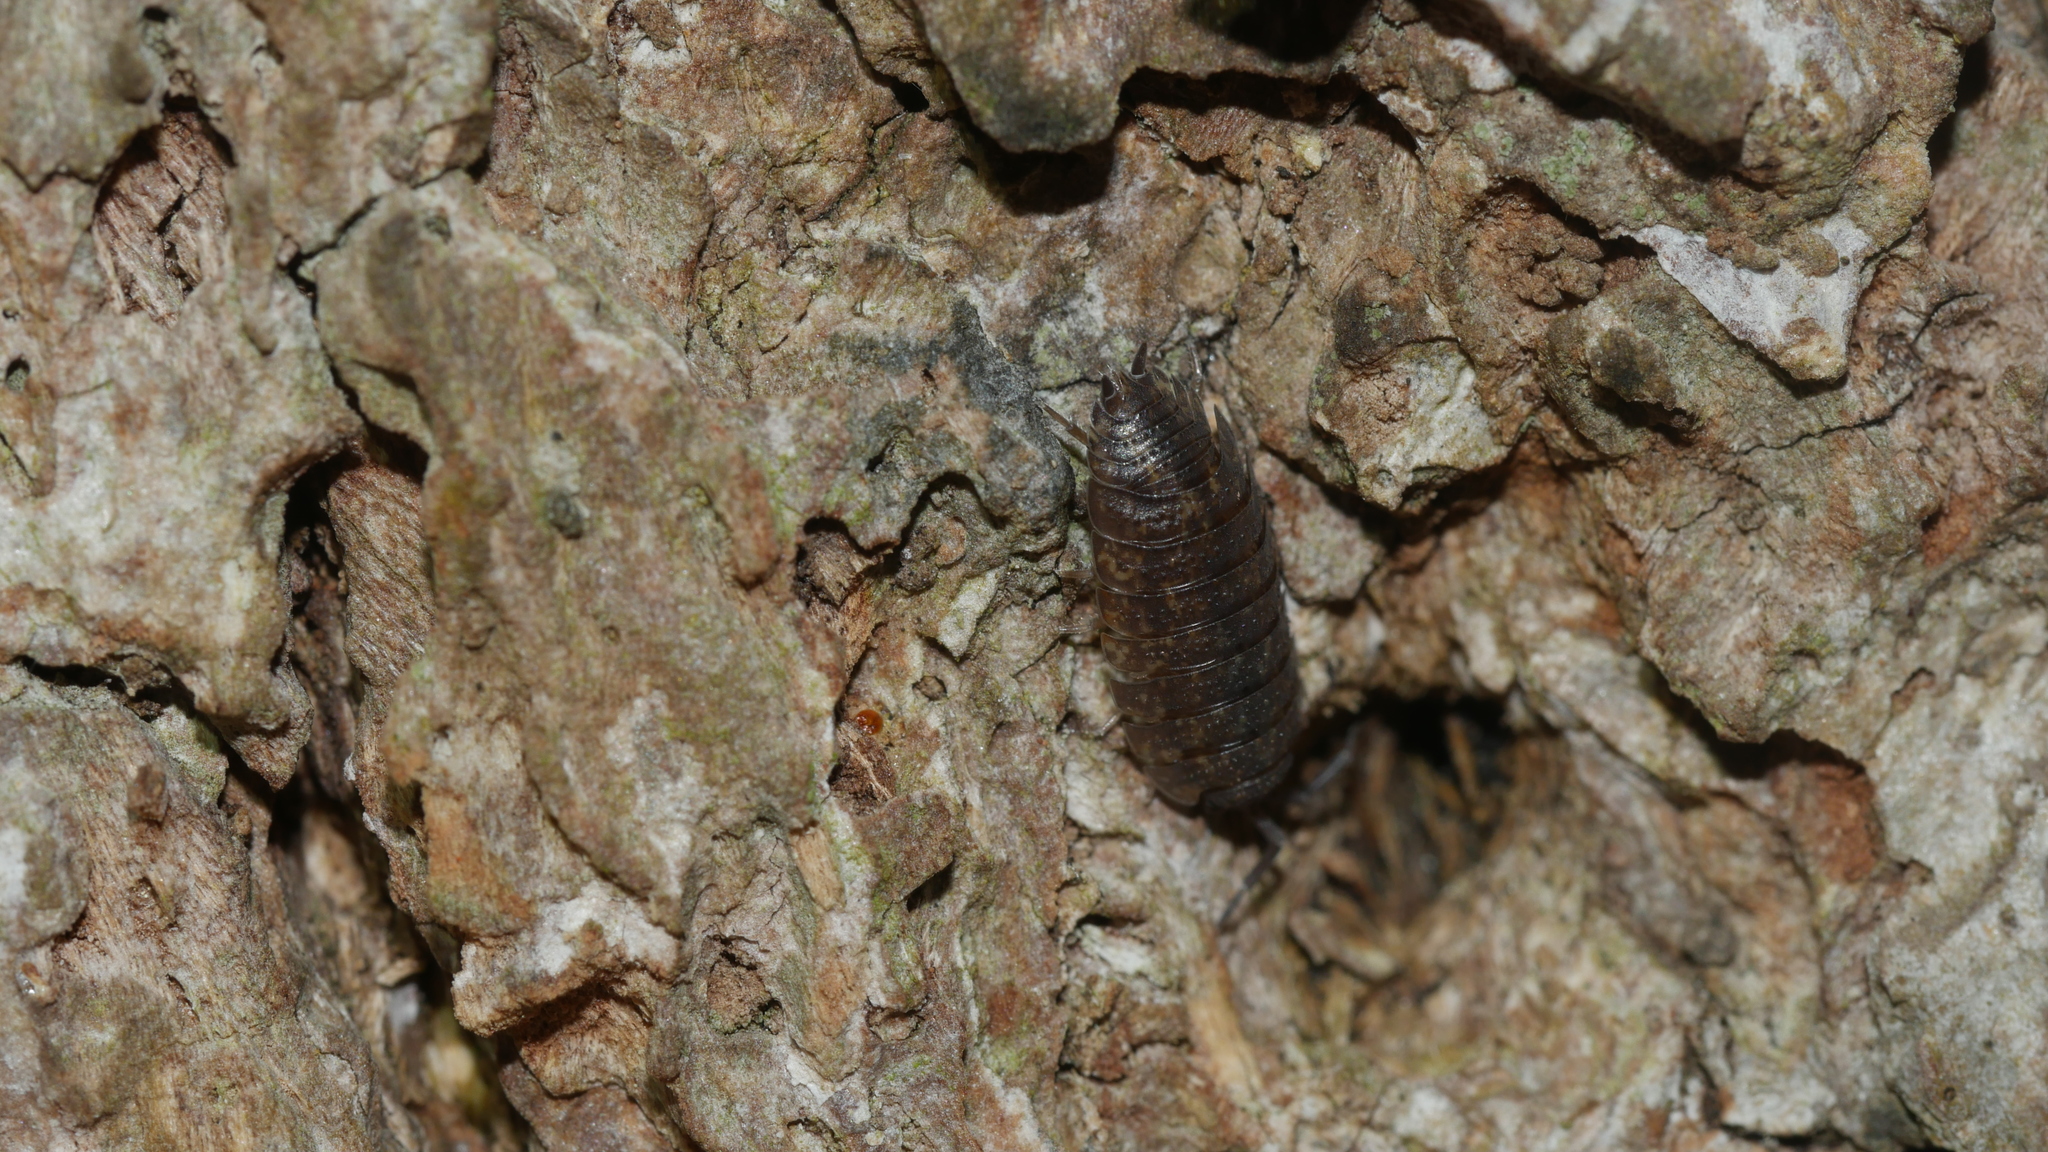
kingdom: Animalia
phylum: Arthropoda
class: Malacostraca
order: Isopoda
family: Porcellionidae
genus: Porcellio
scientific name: Porcellio scaber
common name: Common rough woodlouse
